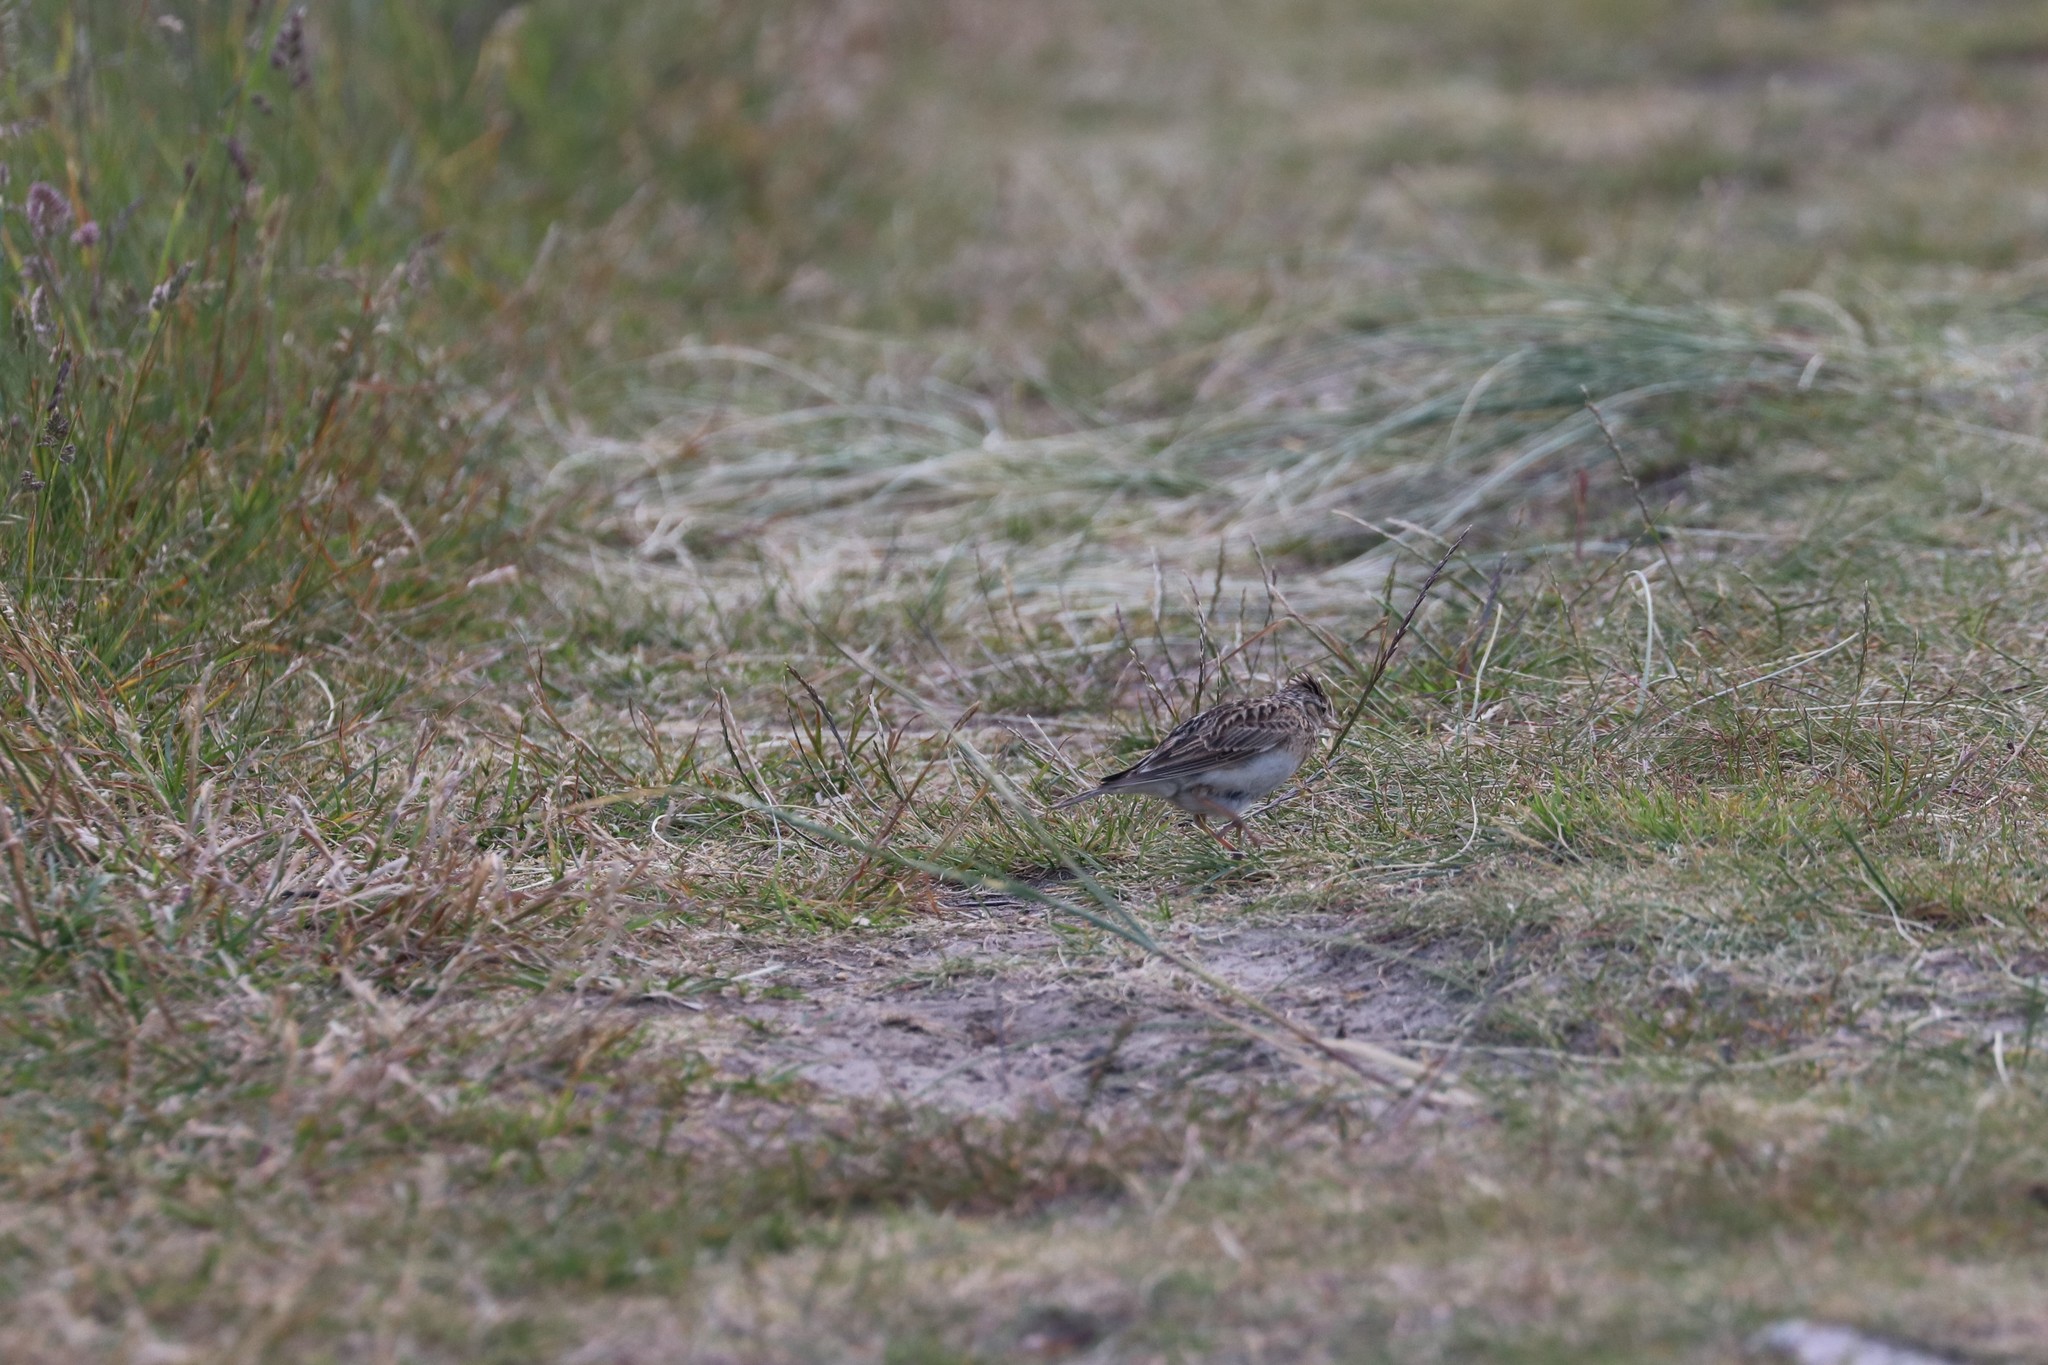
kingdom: Animalia
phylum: Chordata
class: Aves
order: Passeriformes
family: Alaudidae
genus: Alauda
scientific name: Alauda arvensis
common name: Eurasian skylark
